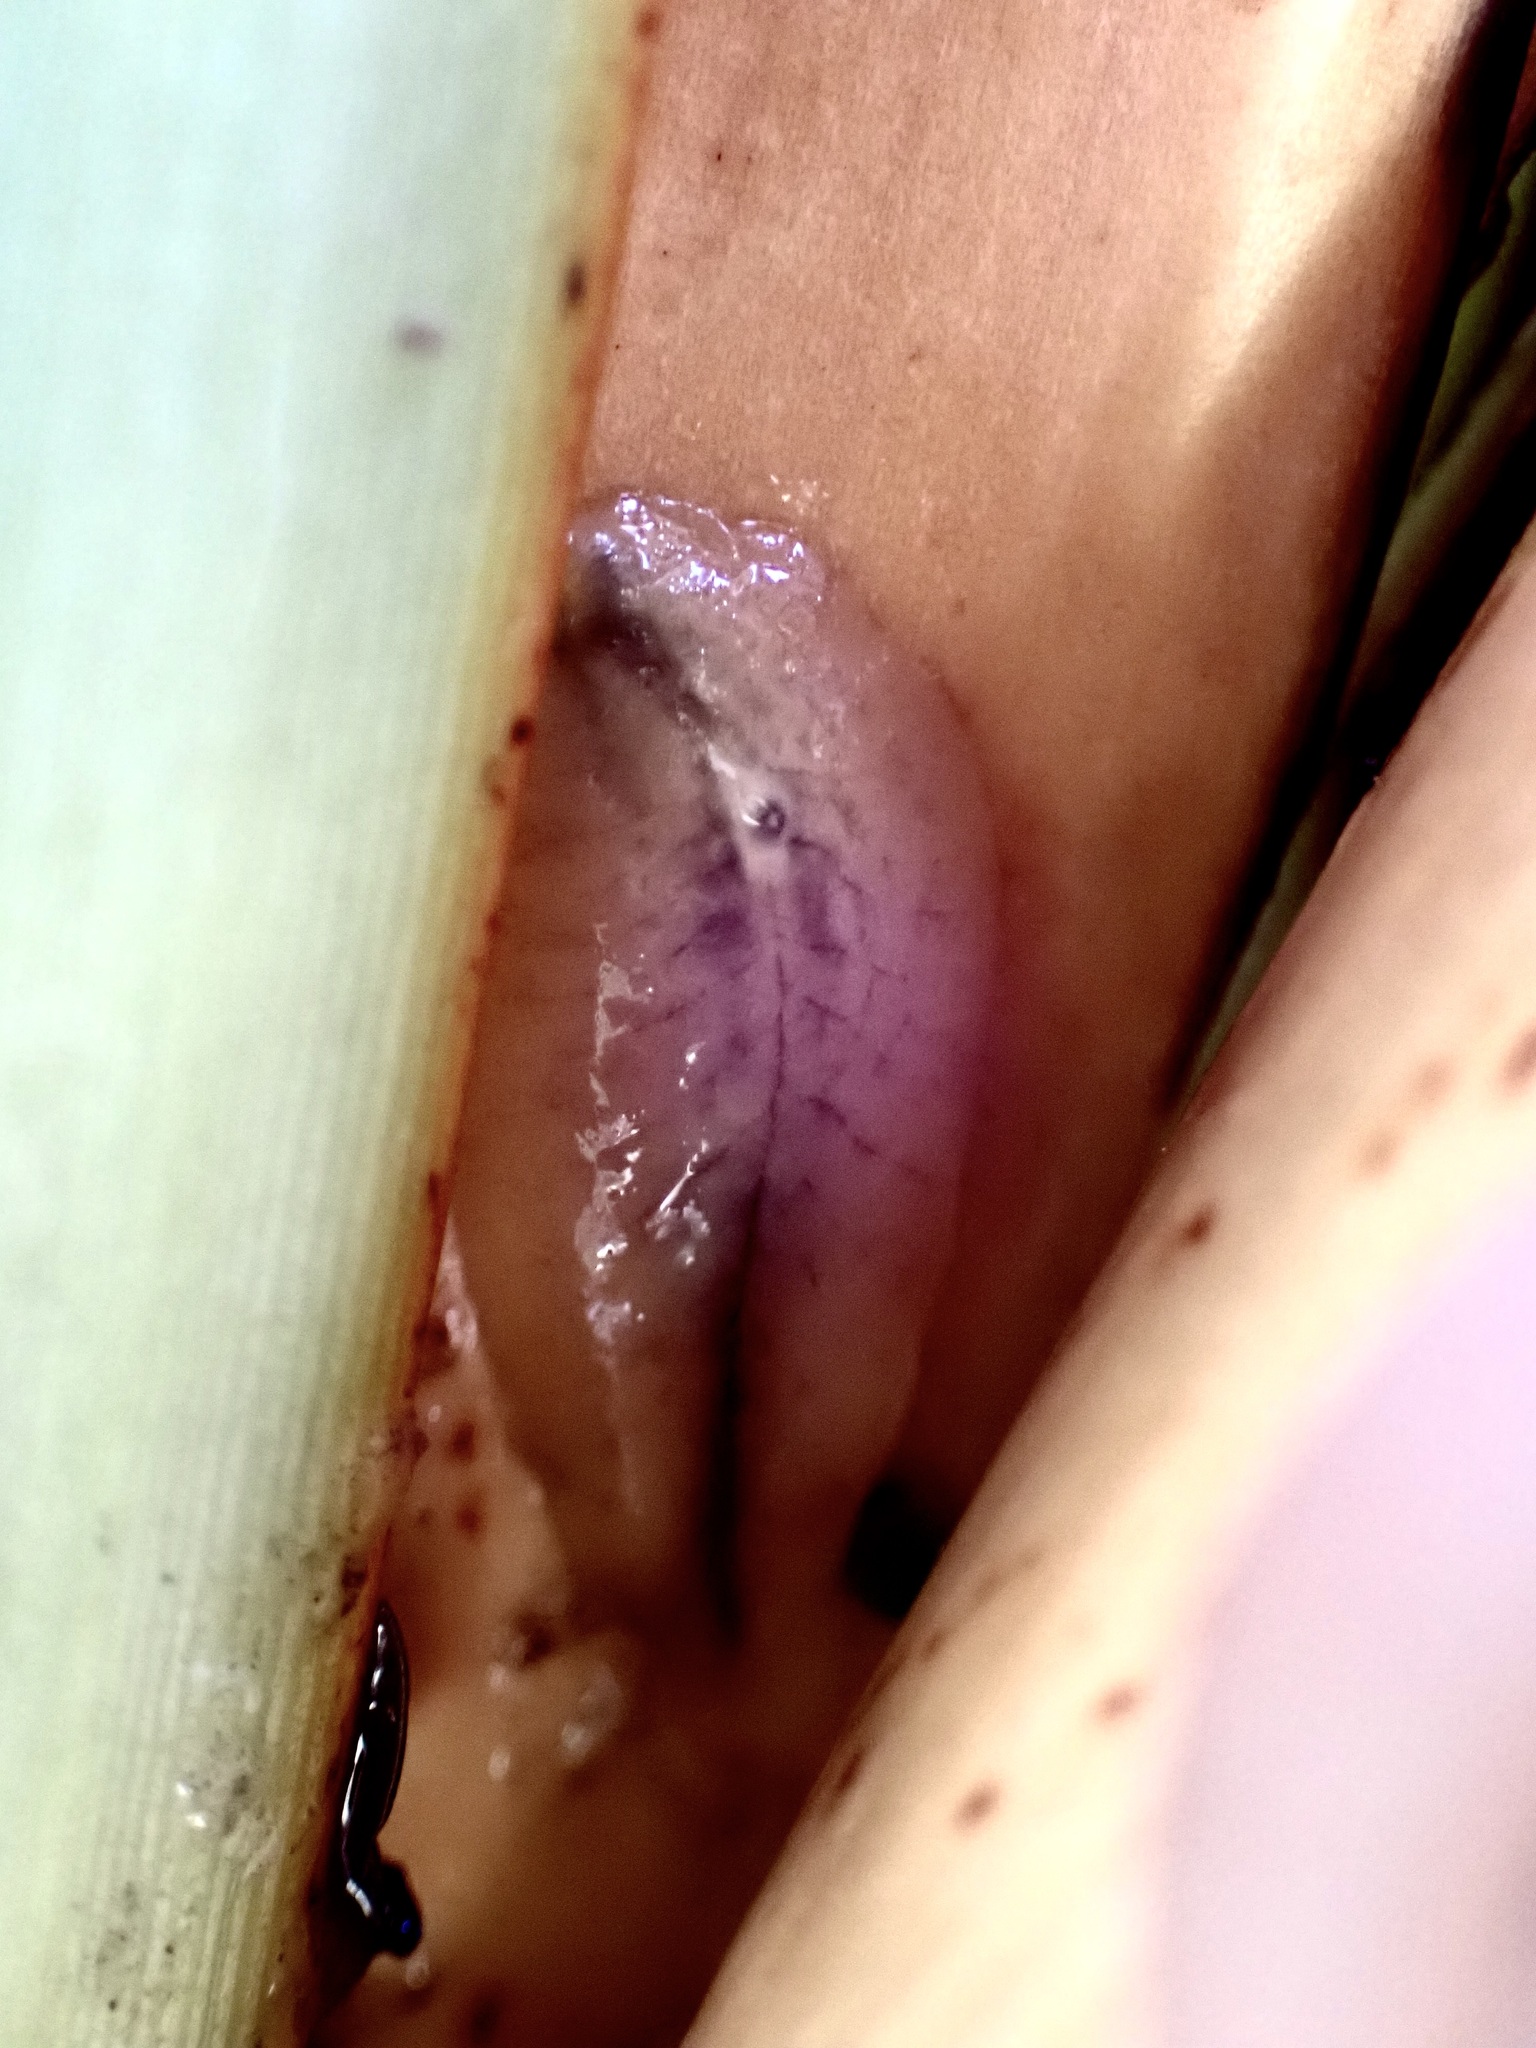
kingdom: Animalia
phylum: Mollusca
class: Gastropoda
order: Stylommatophora
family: Athoracophoridae
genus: Athoracophorus
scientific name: Athoracophorus
